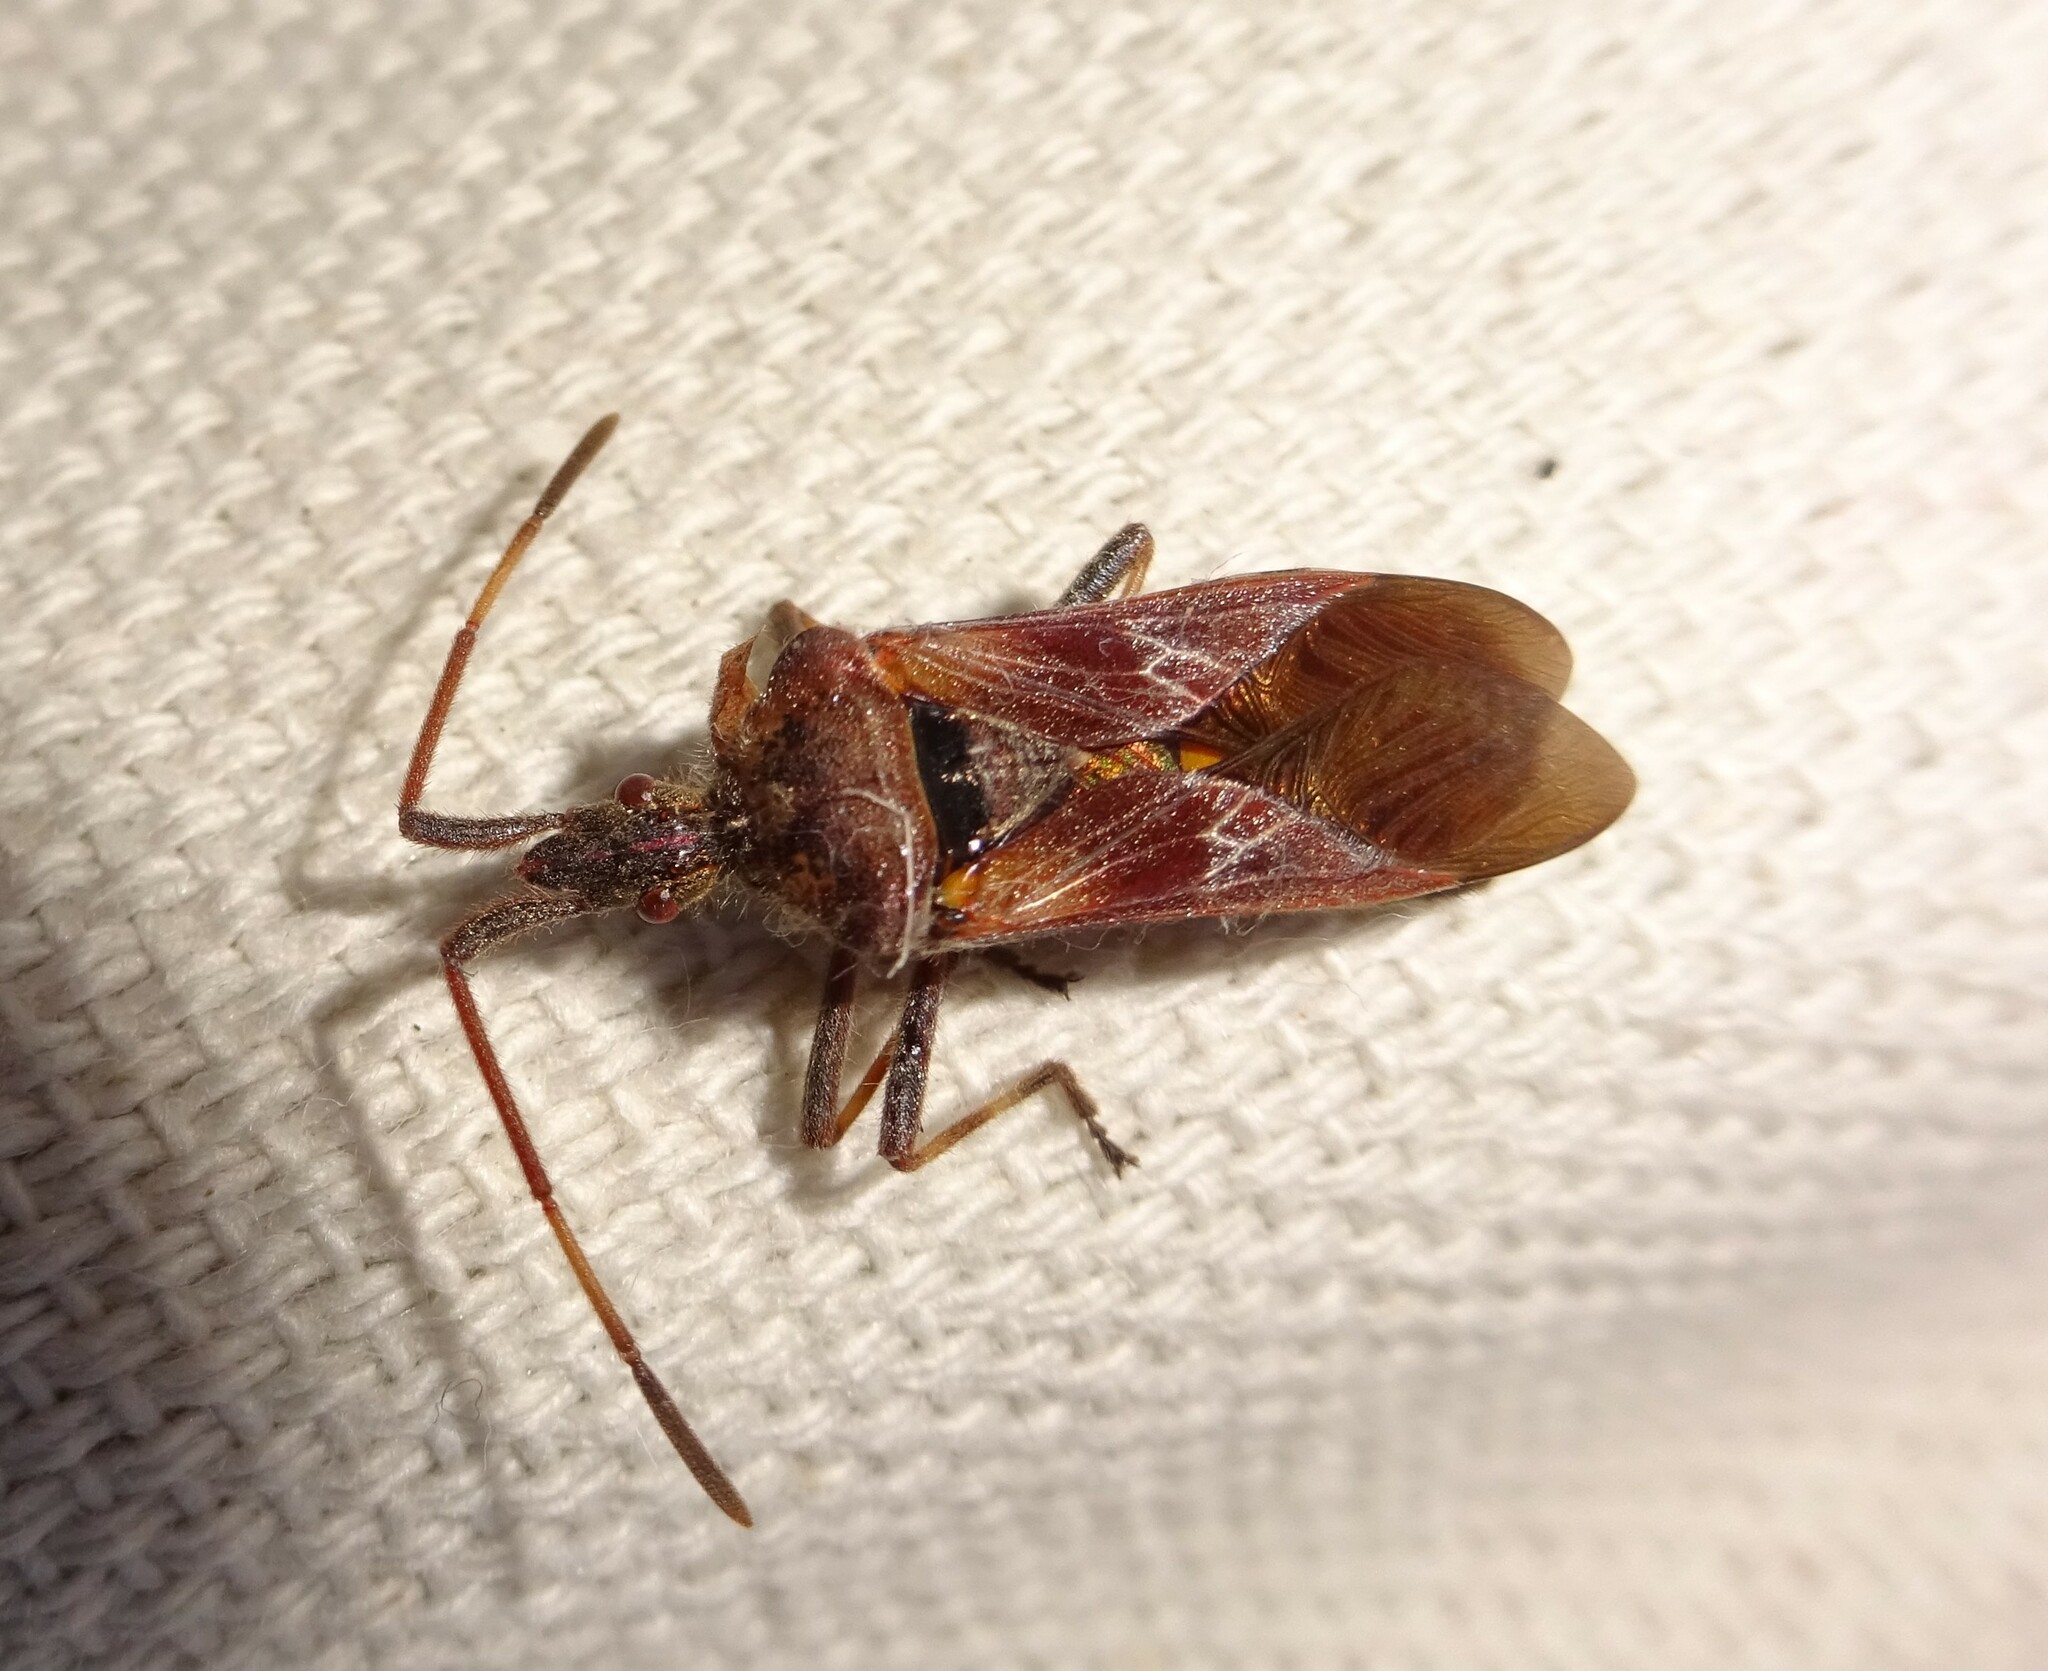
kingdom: Animalia
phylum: Arthropoda
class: Insecta
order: Hemiptera
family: Coreidae
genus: Leptoglossus
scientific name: Leptoglossus occidentalis
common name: Western conifer-seed bug
